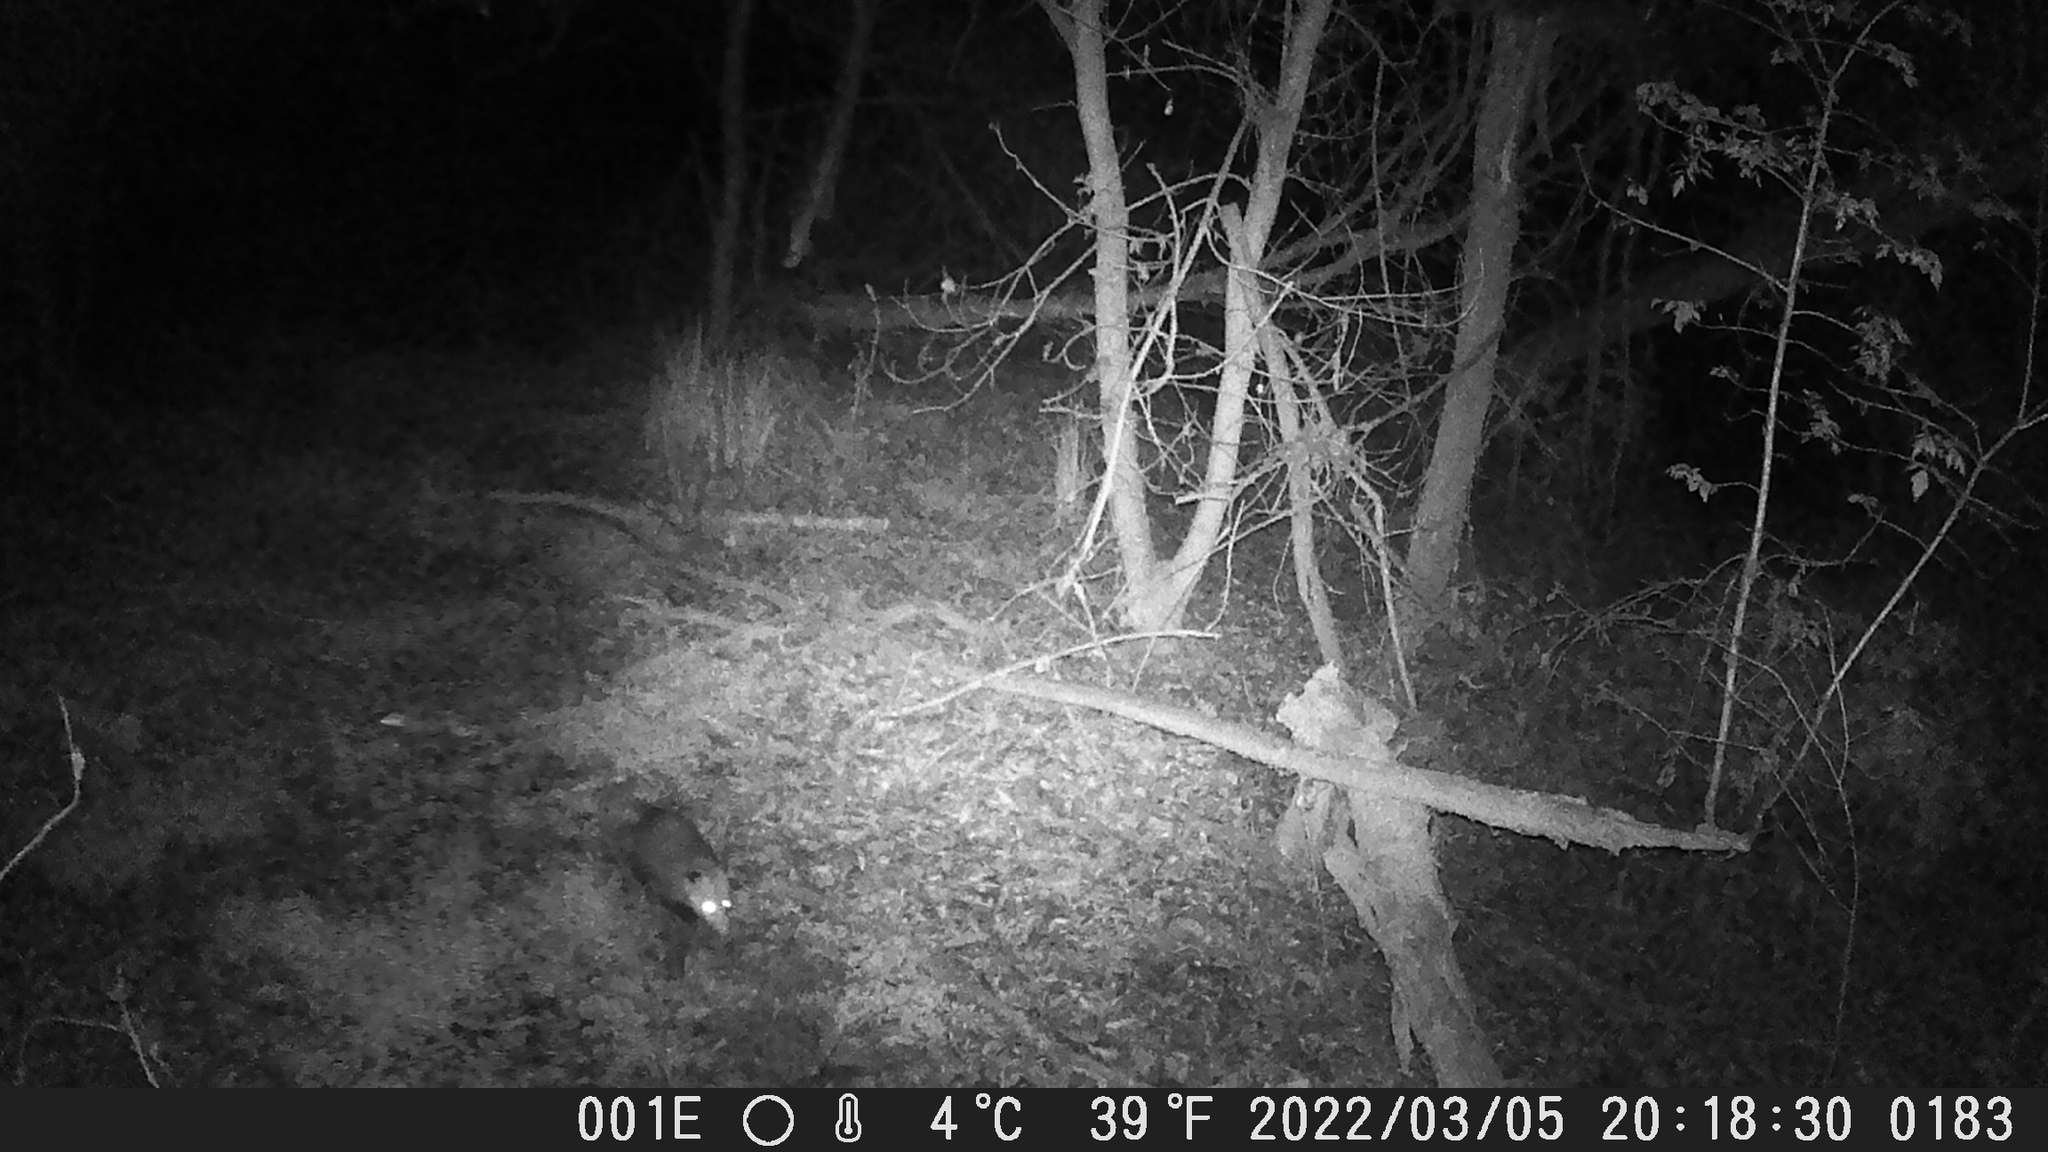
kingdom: Animalia
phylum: Chordata
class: Mammalia
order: Didelphimorphia
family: Didelphidae
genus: Didelphis
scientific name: Didelphis virginiana
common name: Virginia opossum
